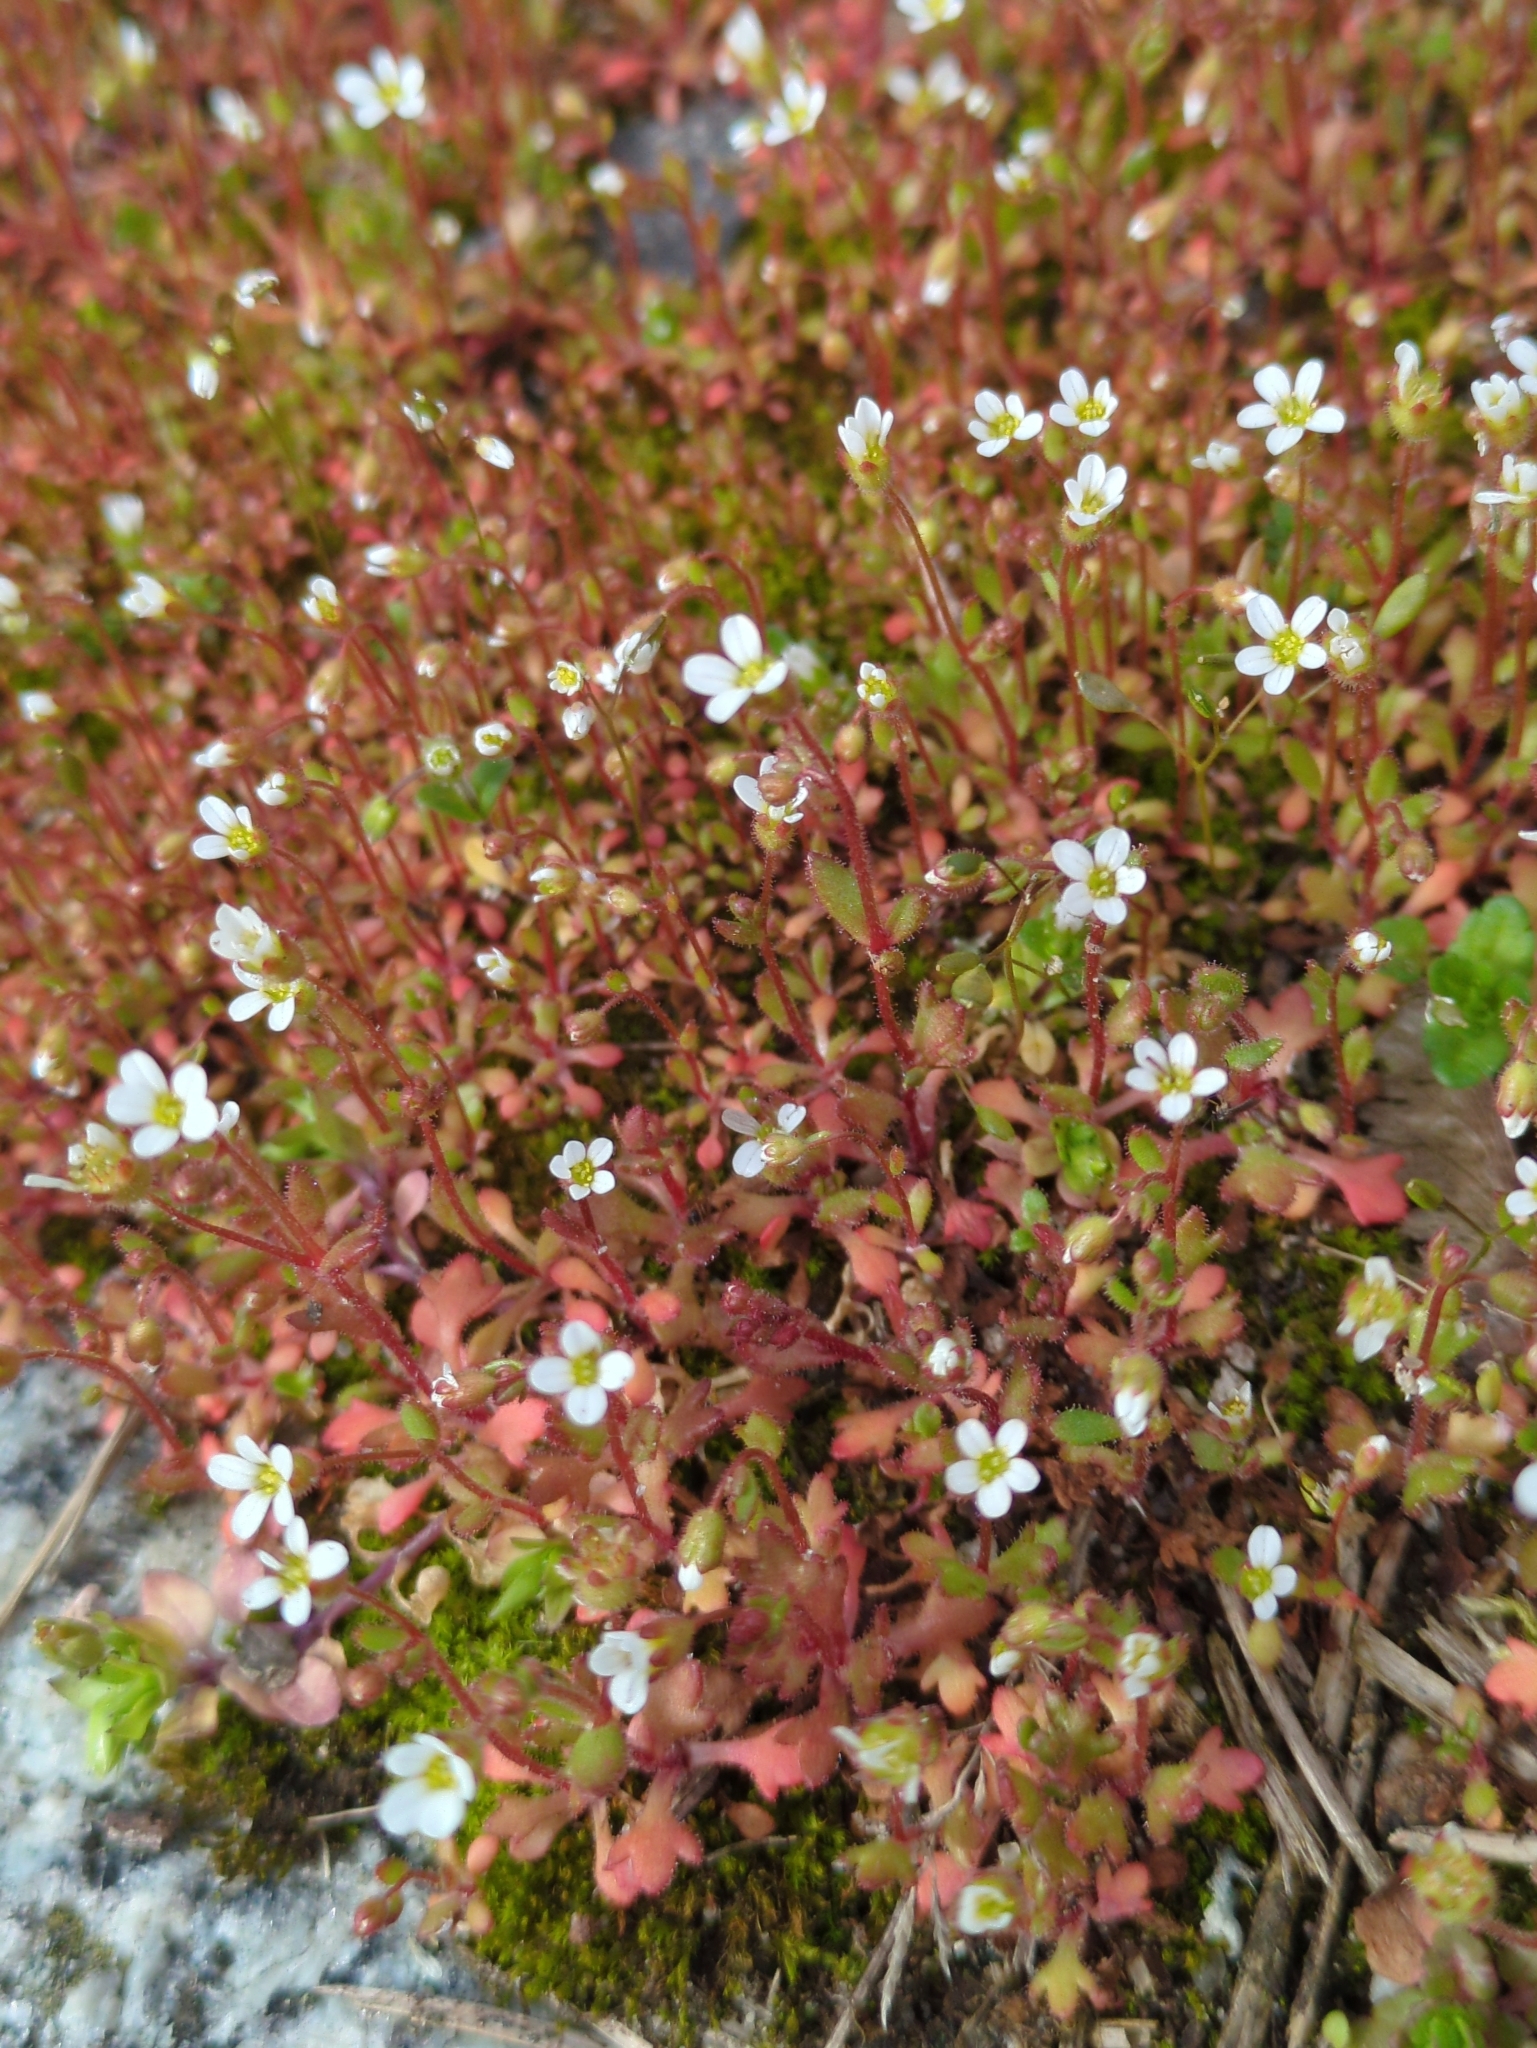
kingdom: Plantae
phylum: Tracheophyta
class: Magnoliopsida
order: Saxifragales
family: Saxifragaceae
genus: Saxifraga
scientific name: Saxifraga tridactylites
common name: Rue-leaved saxifrage
